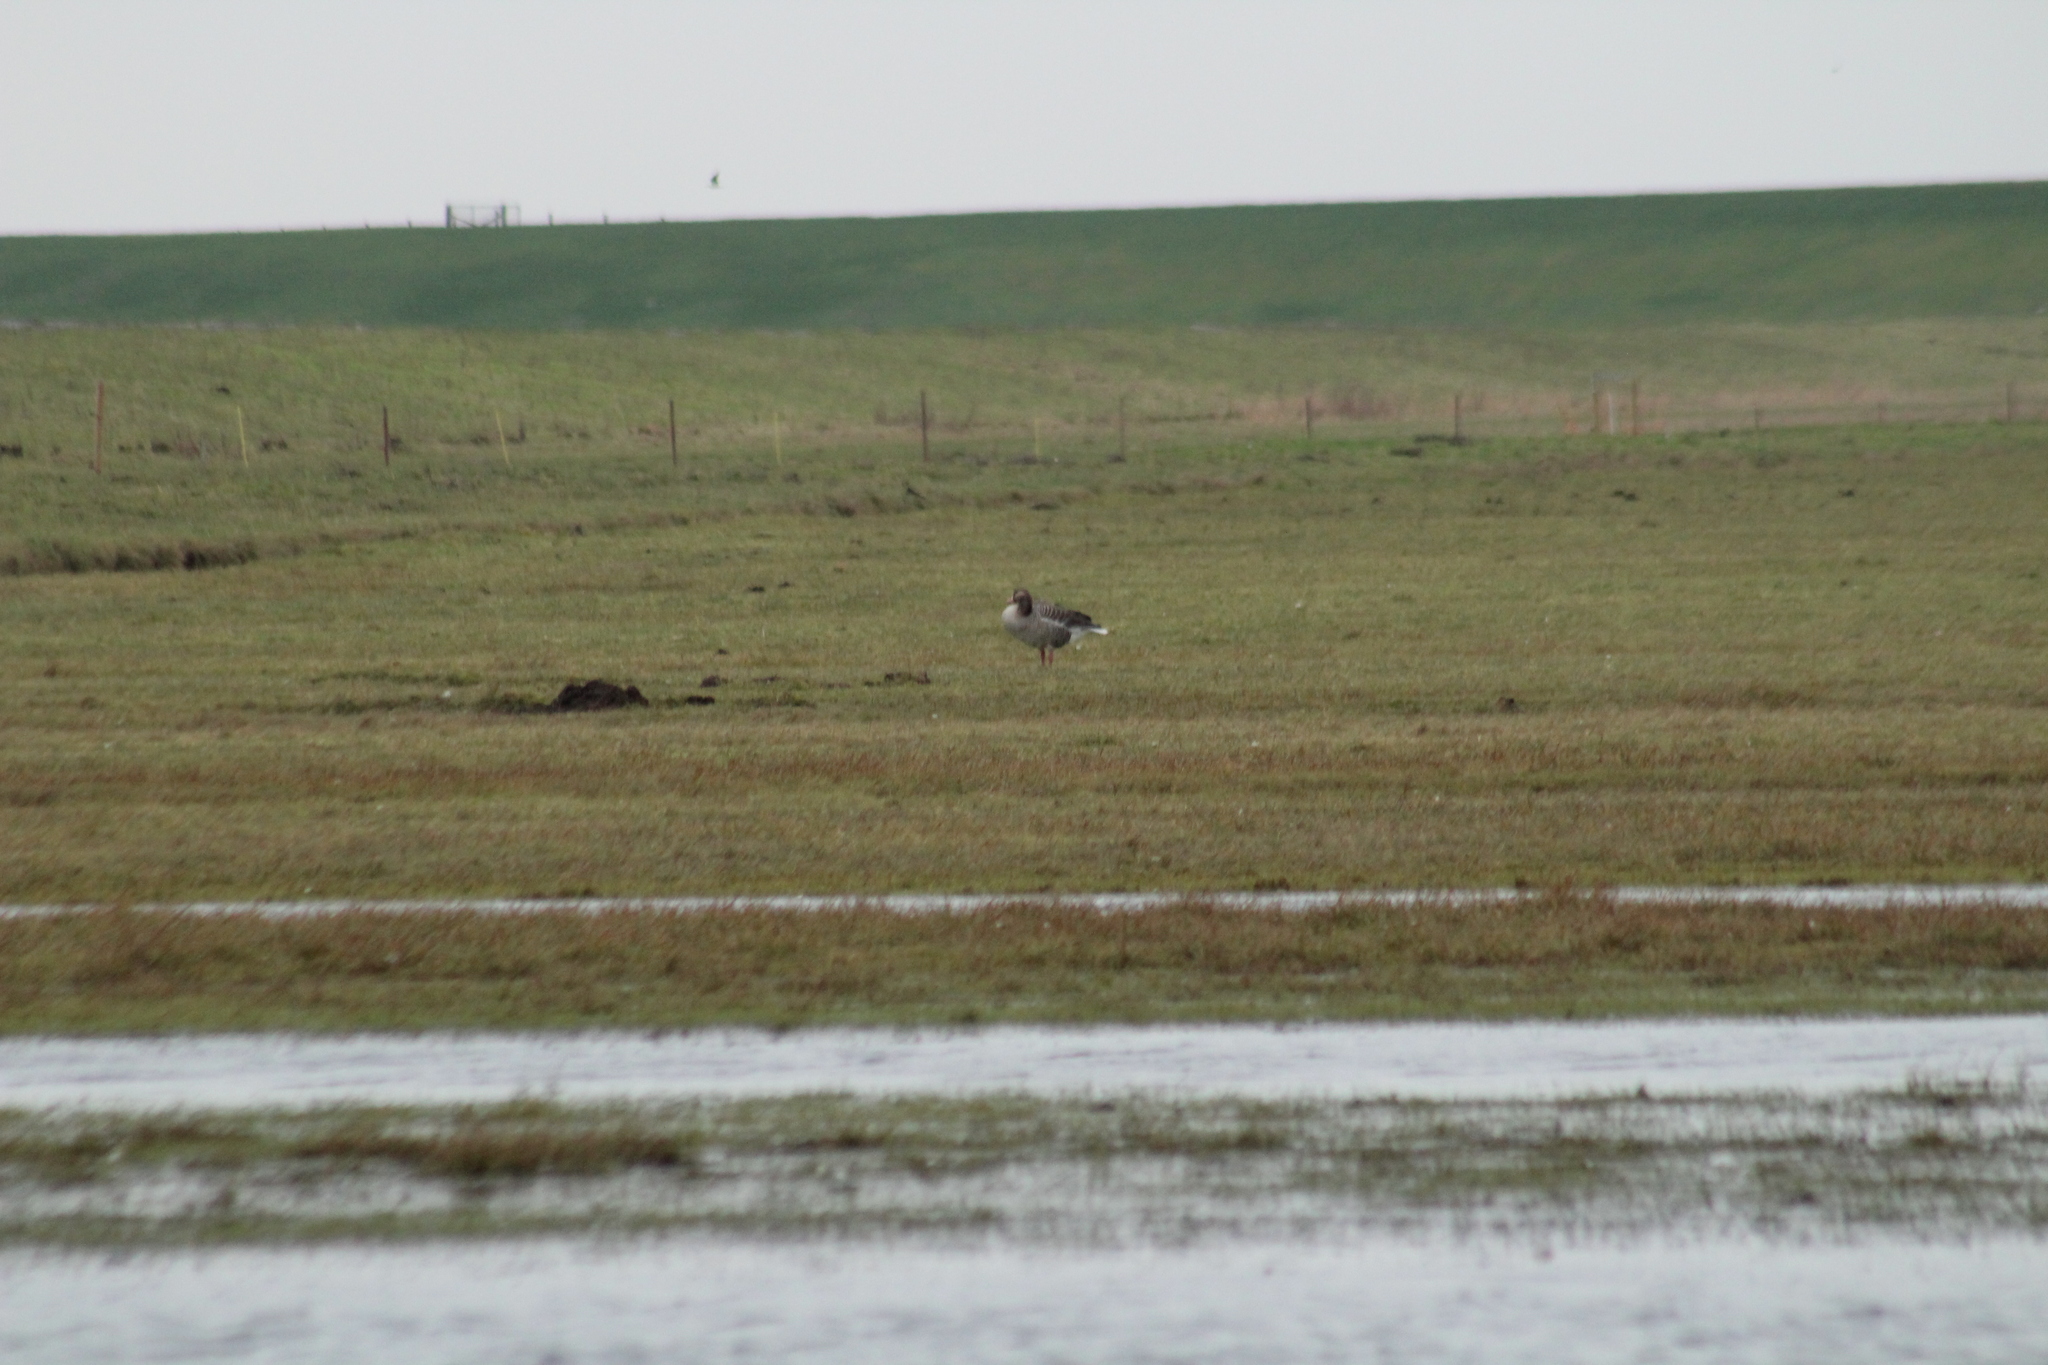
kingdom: Animalia
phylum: Chordata
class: Aves
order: Anseriformes
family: Anatidae
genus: Anser
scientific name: Anser anser
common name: Greylag goose
